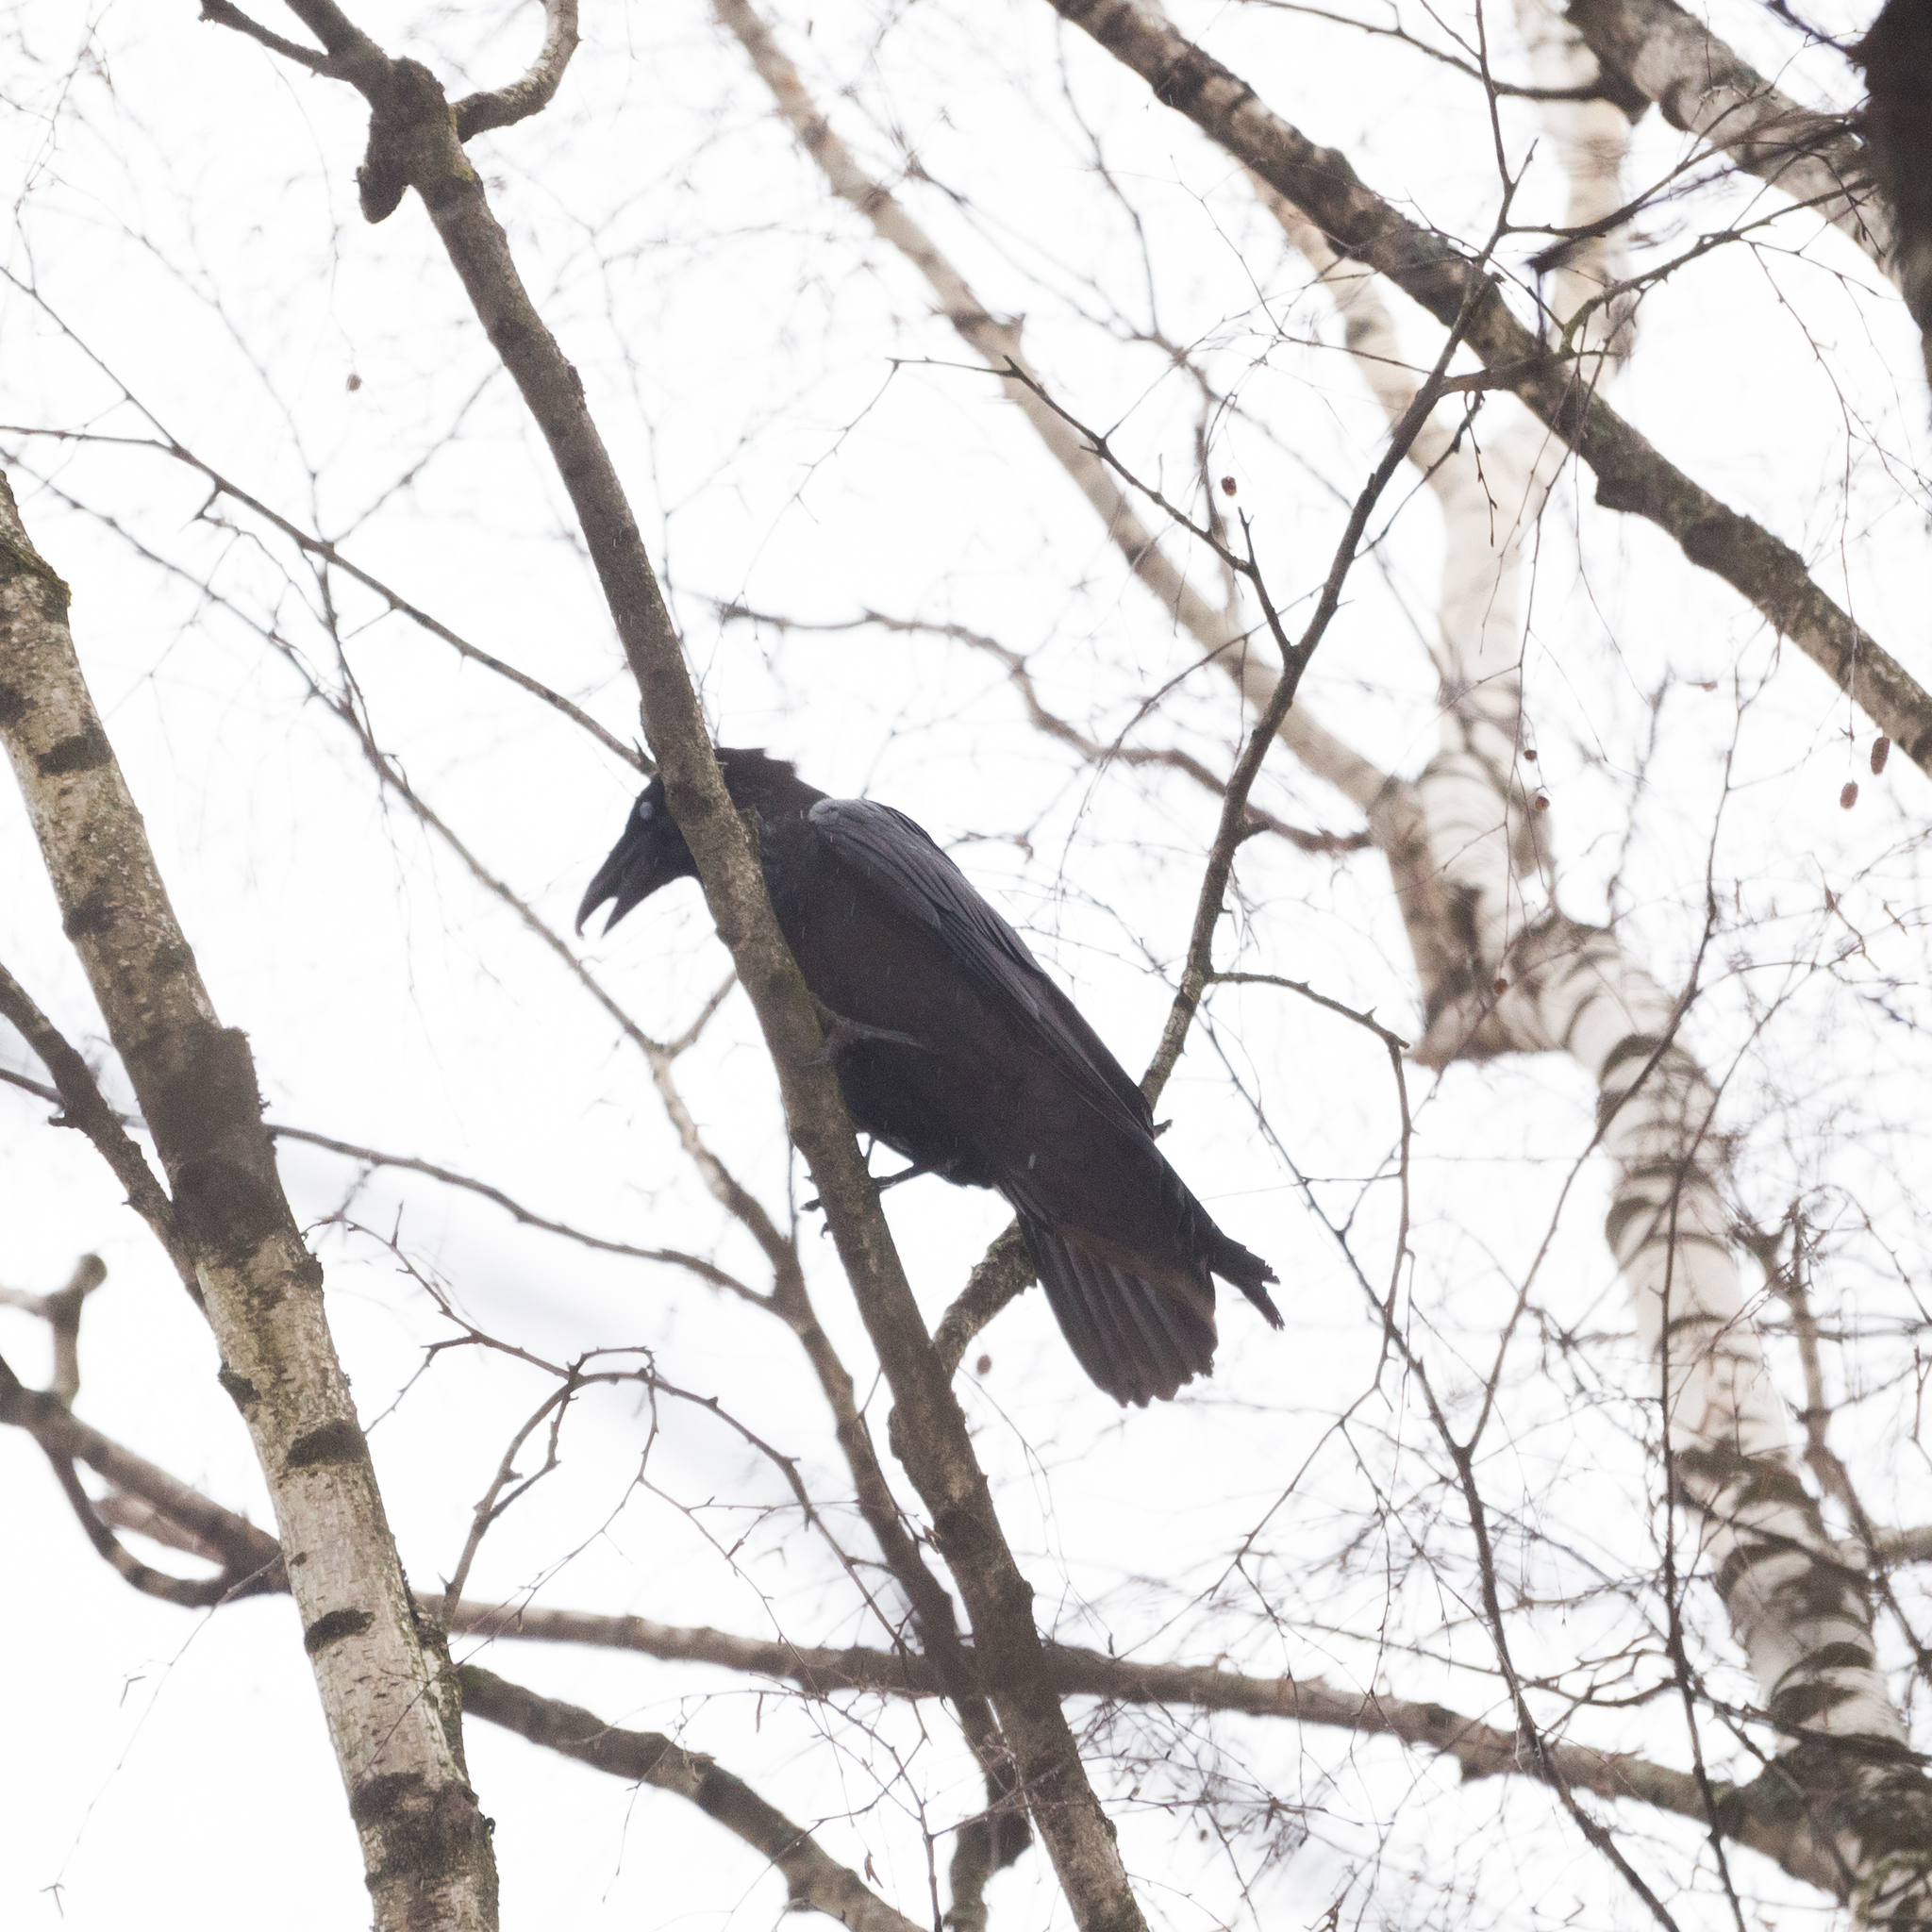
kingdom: Animalia
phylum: Chordata
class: Aves
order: Passeriformes
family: Corvidae
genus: Corvus
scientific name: Corvus corax
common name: Common raven
